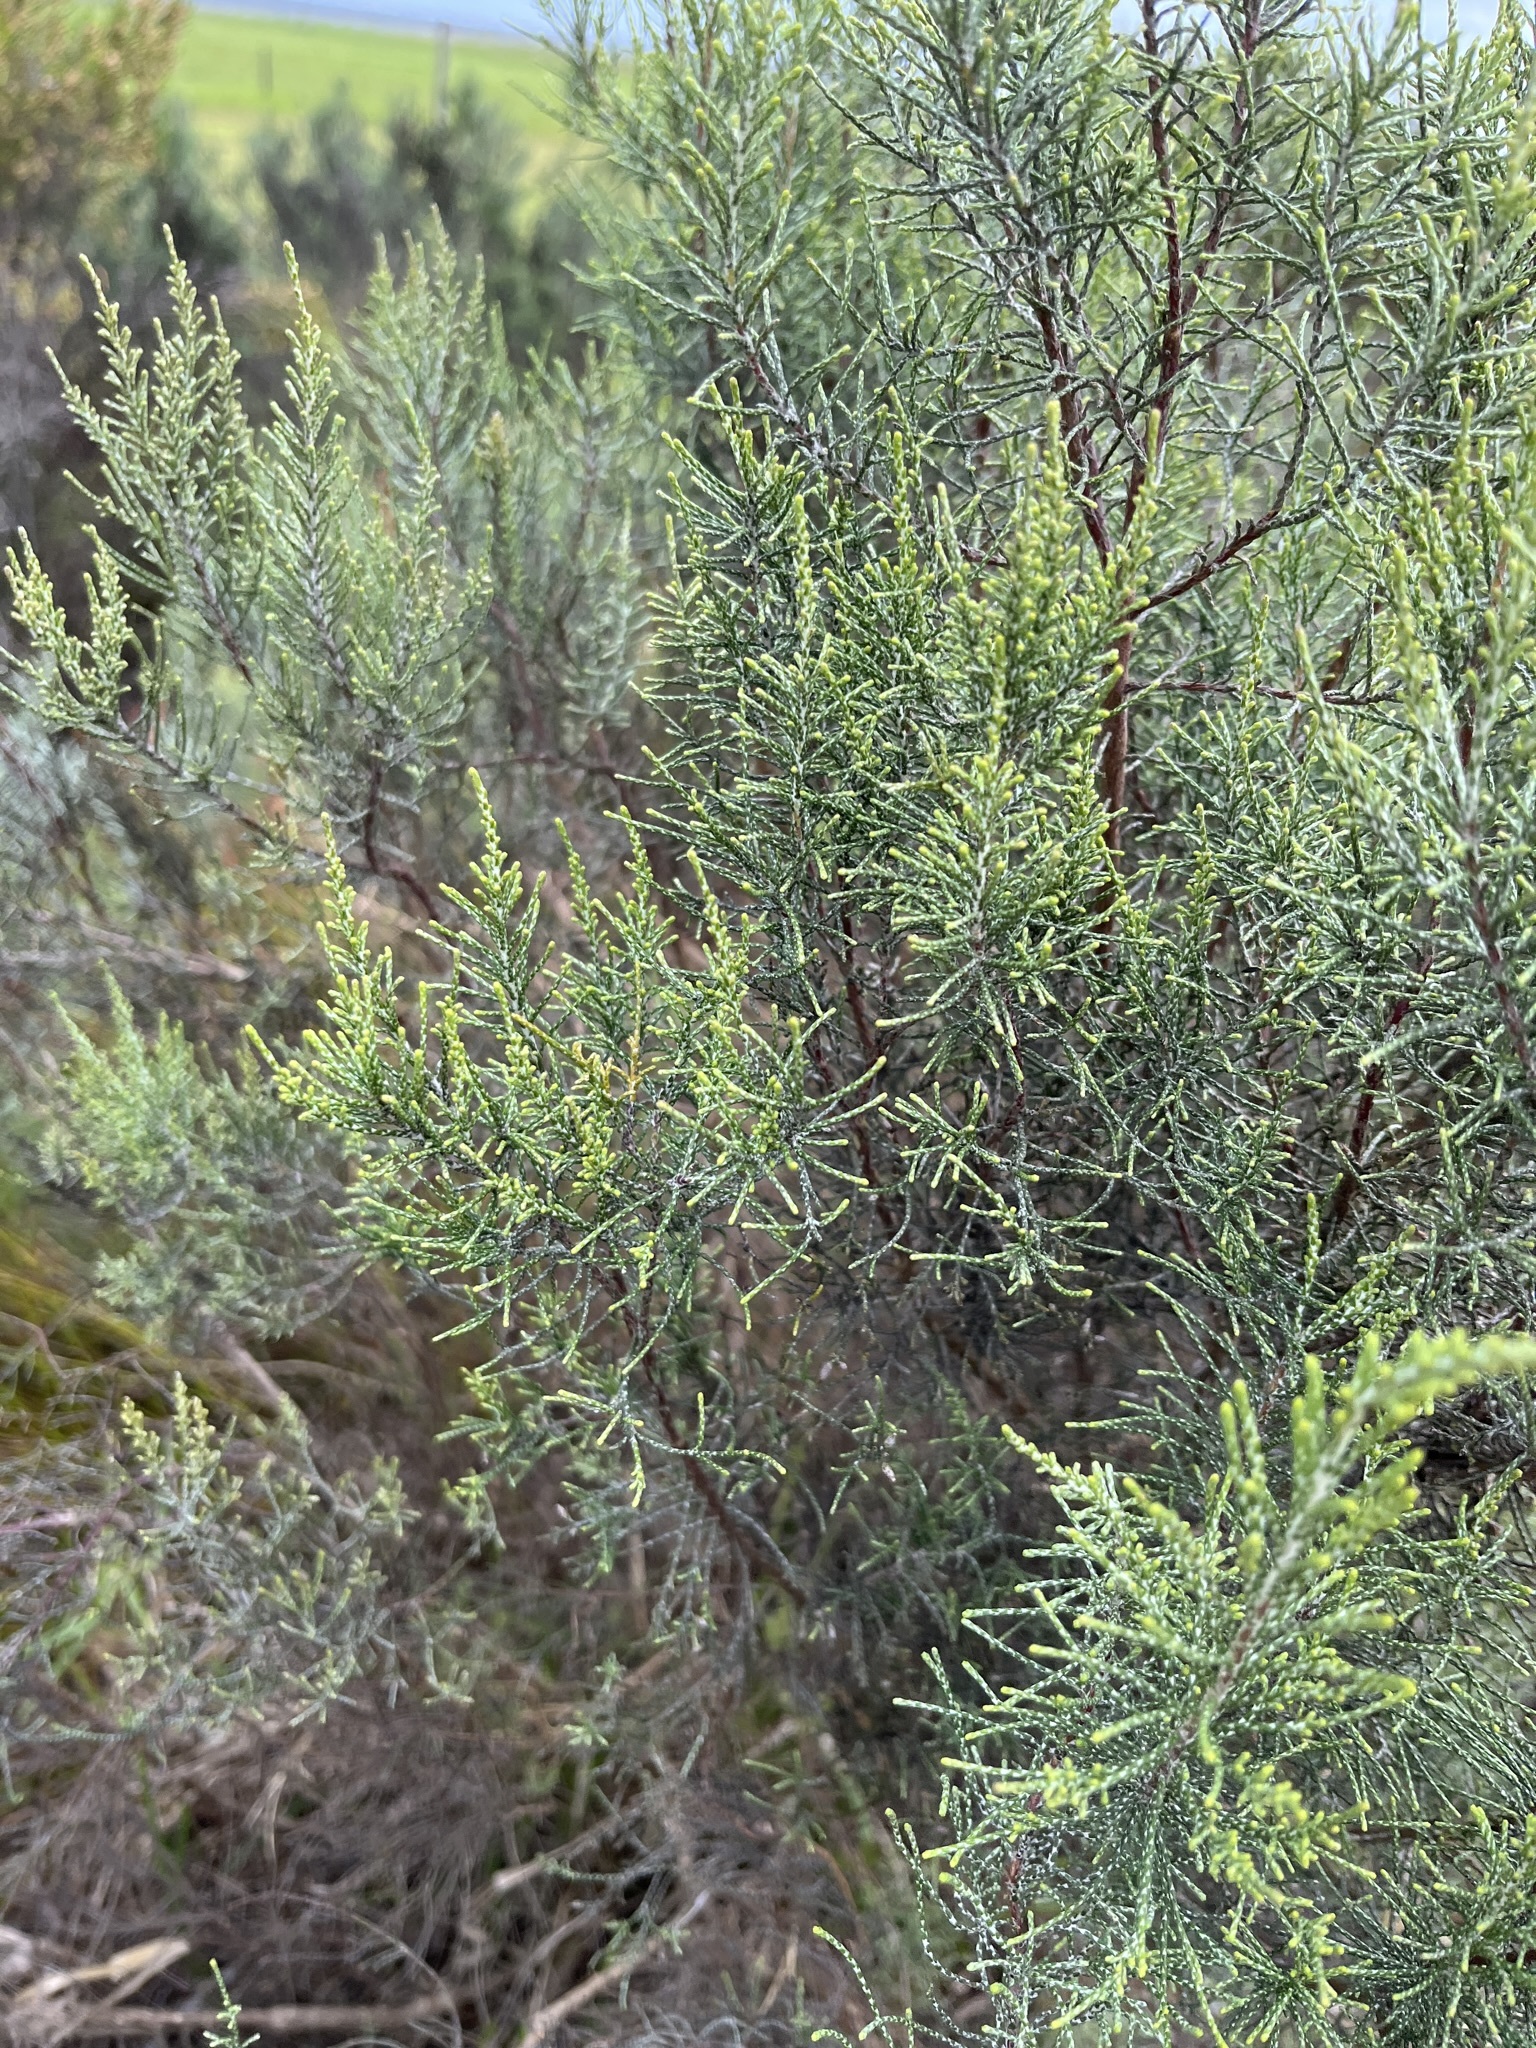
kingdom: Plantae
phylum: Tracheophyta
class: Magnoliopsida
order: Asterales
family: Asteraceae
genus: Dicerothamnus
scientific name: Dicerothamnus rhinocerotis
